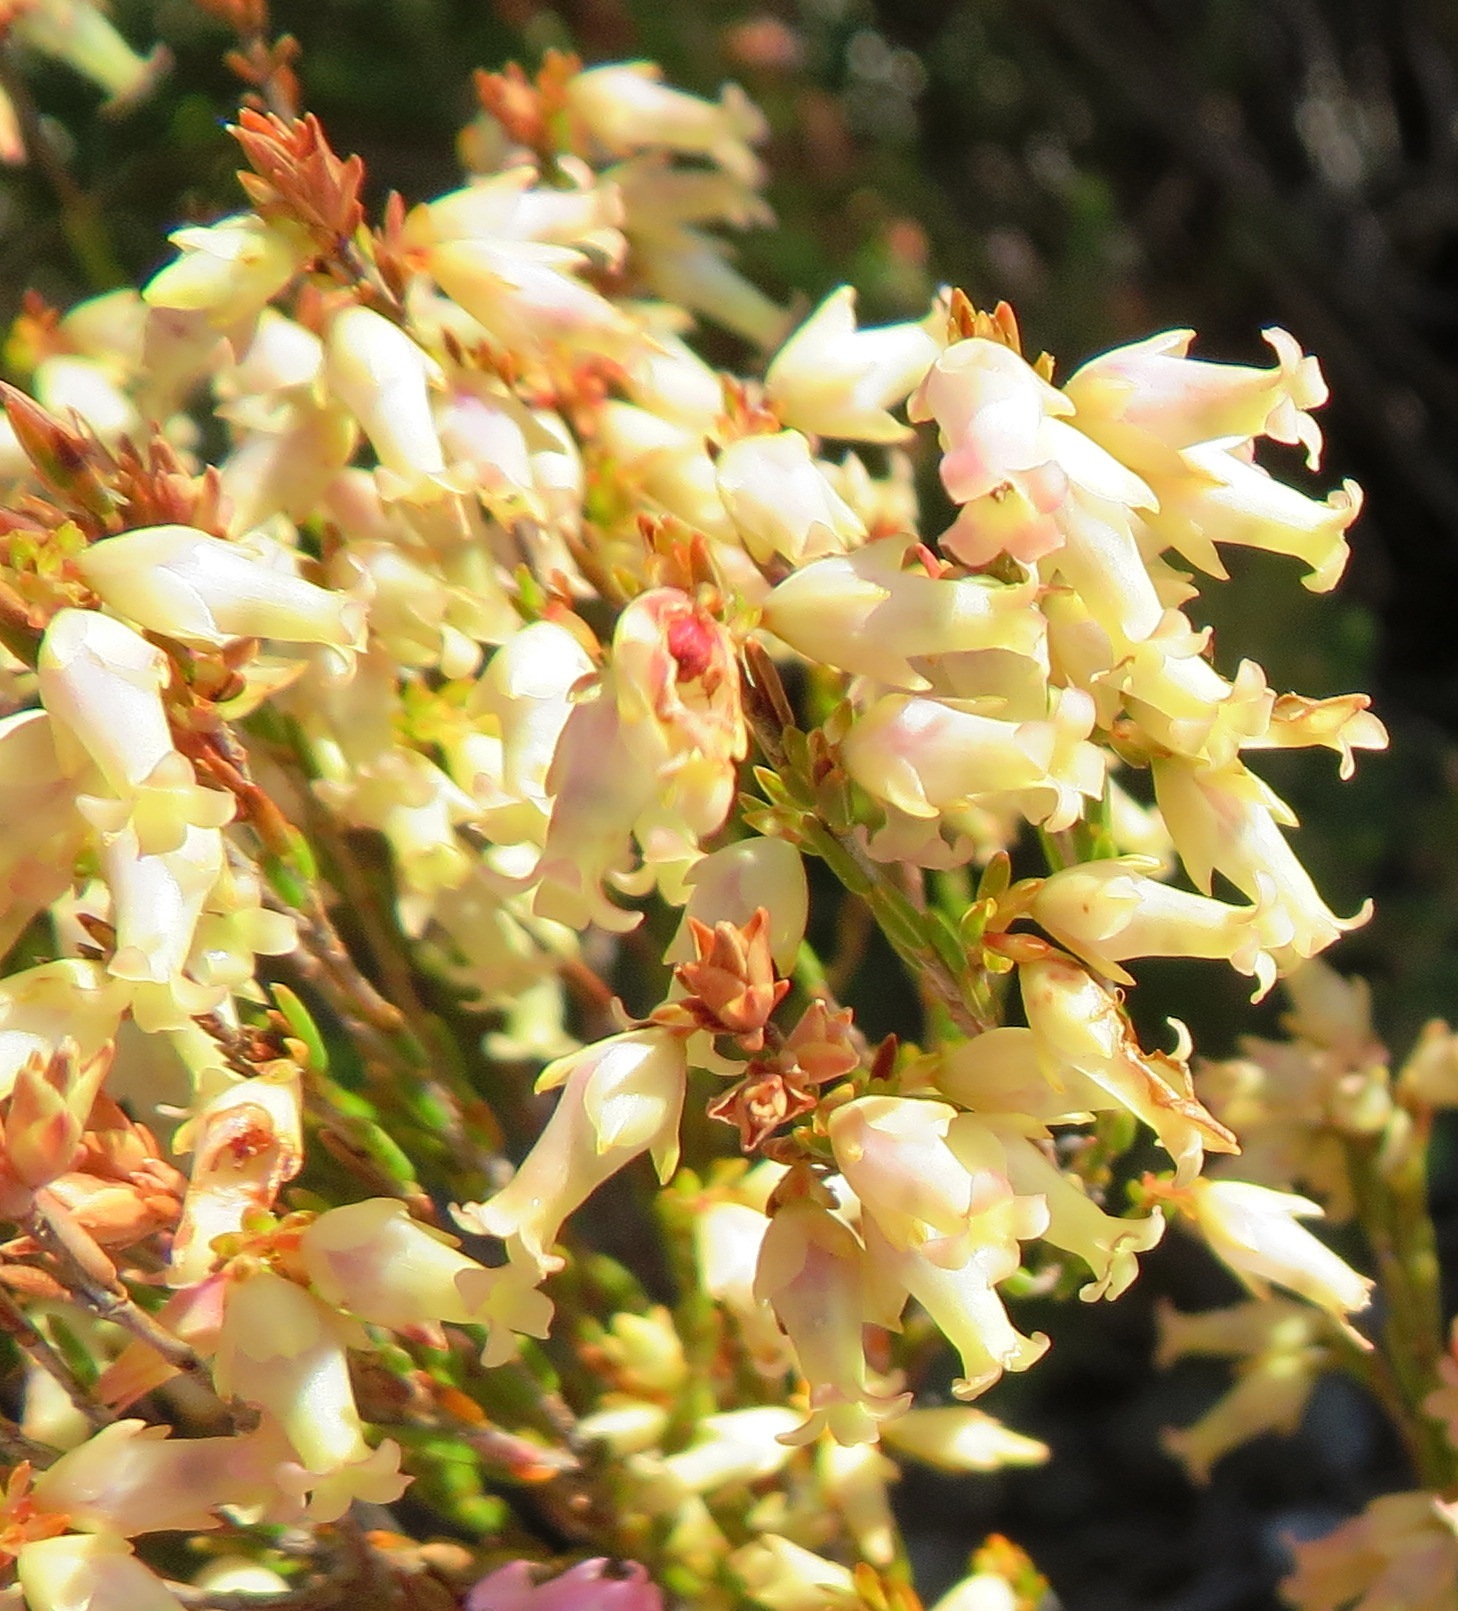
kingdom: Plantae
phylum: Tracheophyta
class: Magnoliopsida
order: Ericales
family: Ericaceae
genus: Erica
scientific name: Erica lutea
